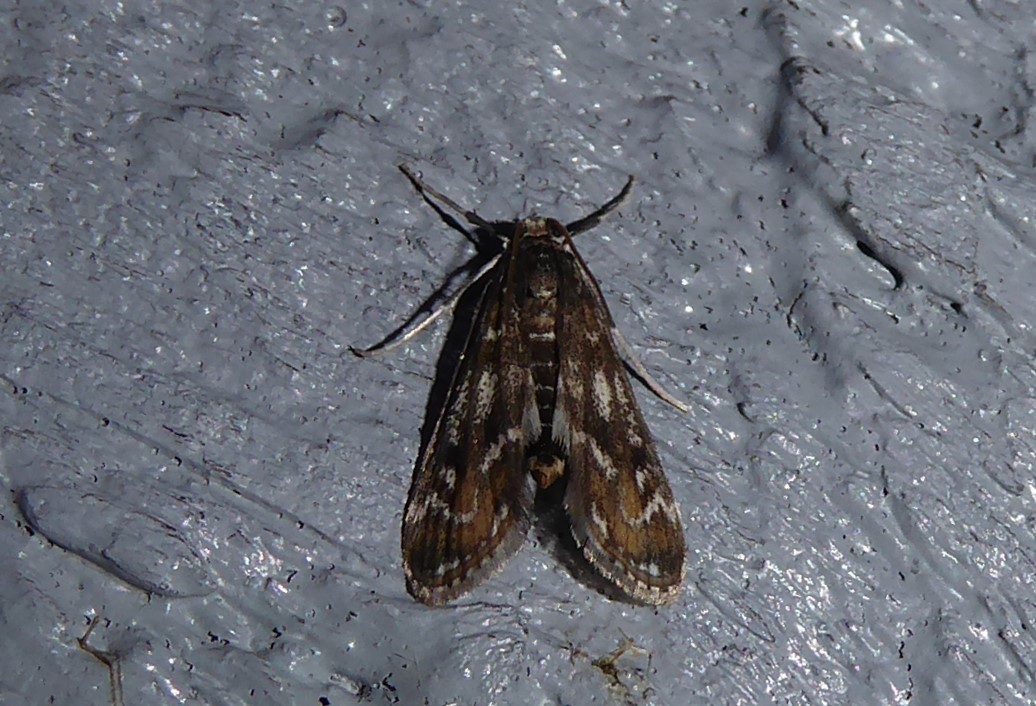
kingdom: Animalia
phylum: Arthropoda
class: Insecta
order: Lepidoptera
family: Crambidae
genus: Hygraula
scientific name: Hygraula nitens
